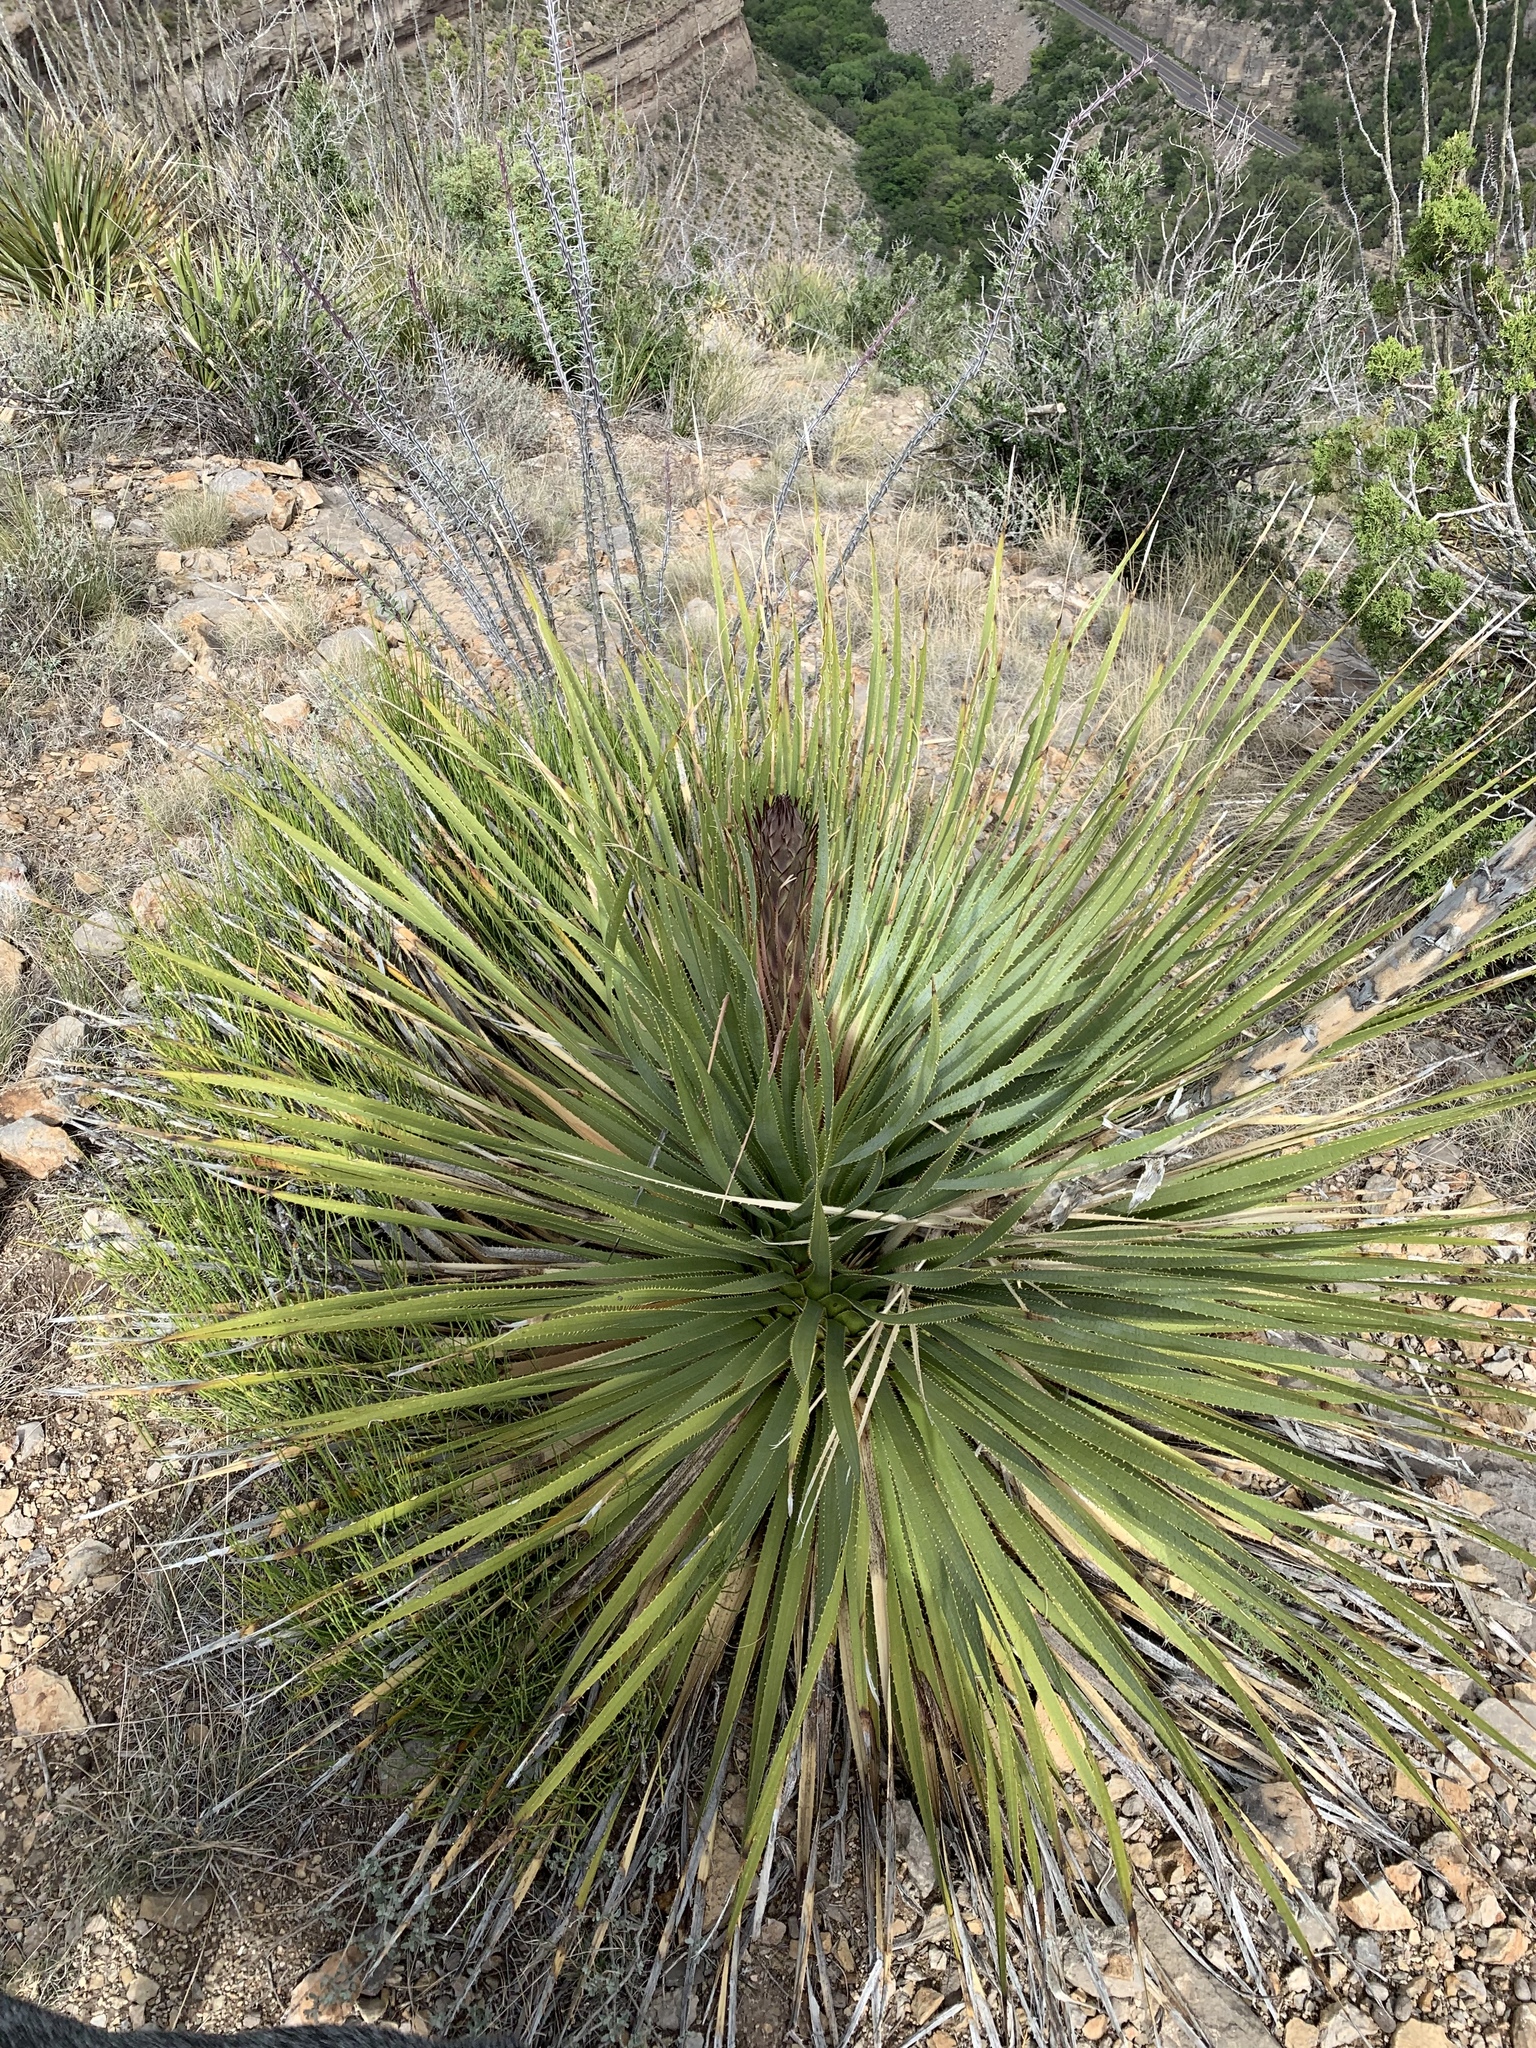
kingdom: Plantae
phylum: Tracheophyta
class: Liliopsida
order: Asparagales
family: Asparagaceae
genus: Dasylirion
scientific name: Dasylirion wheeleri
